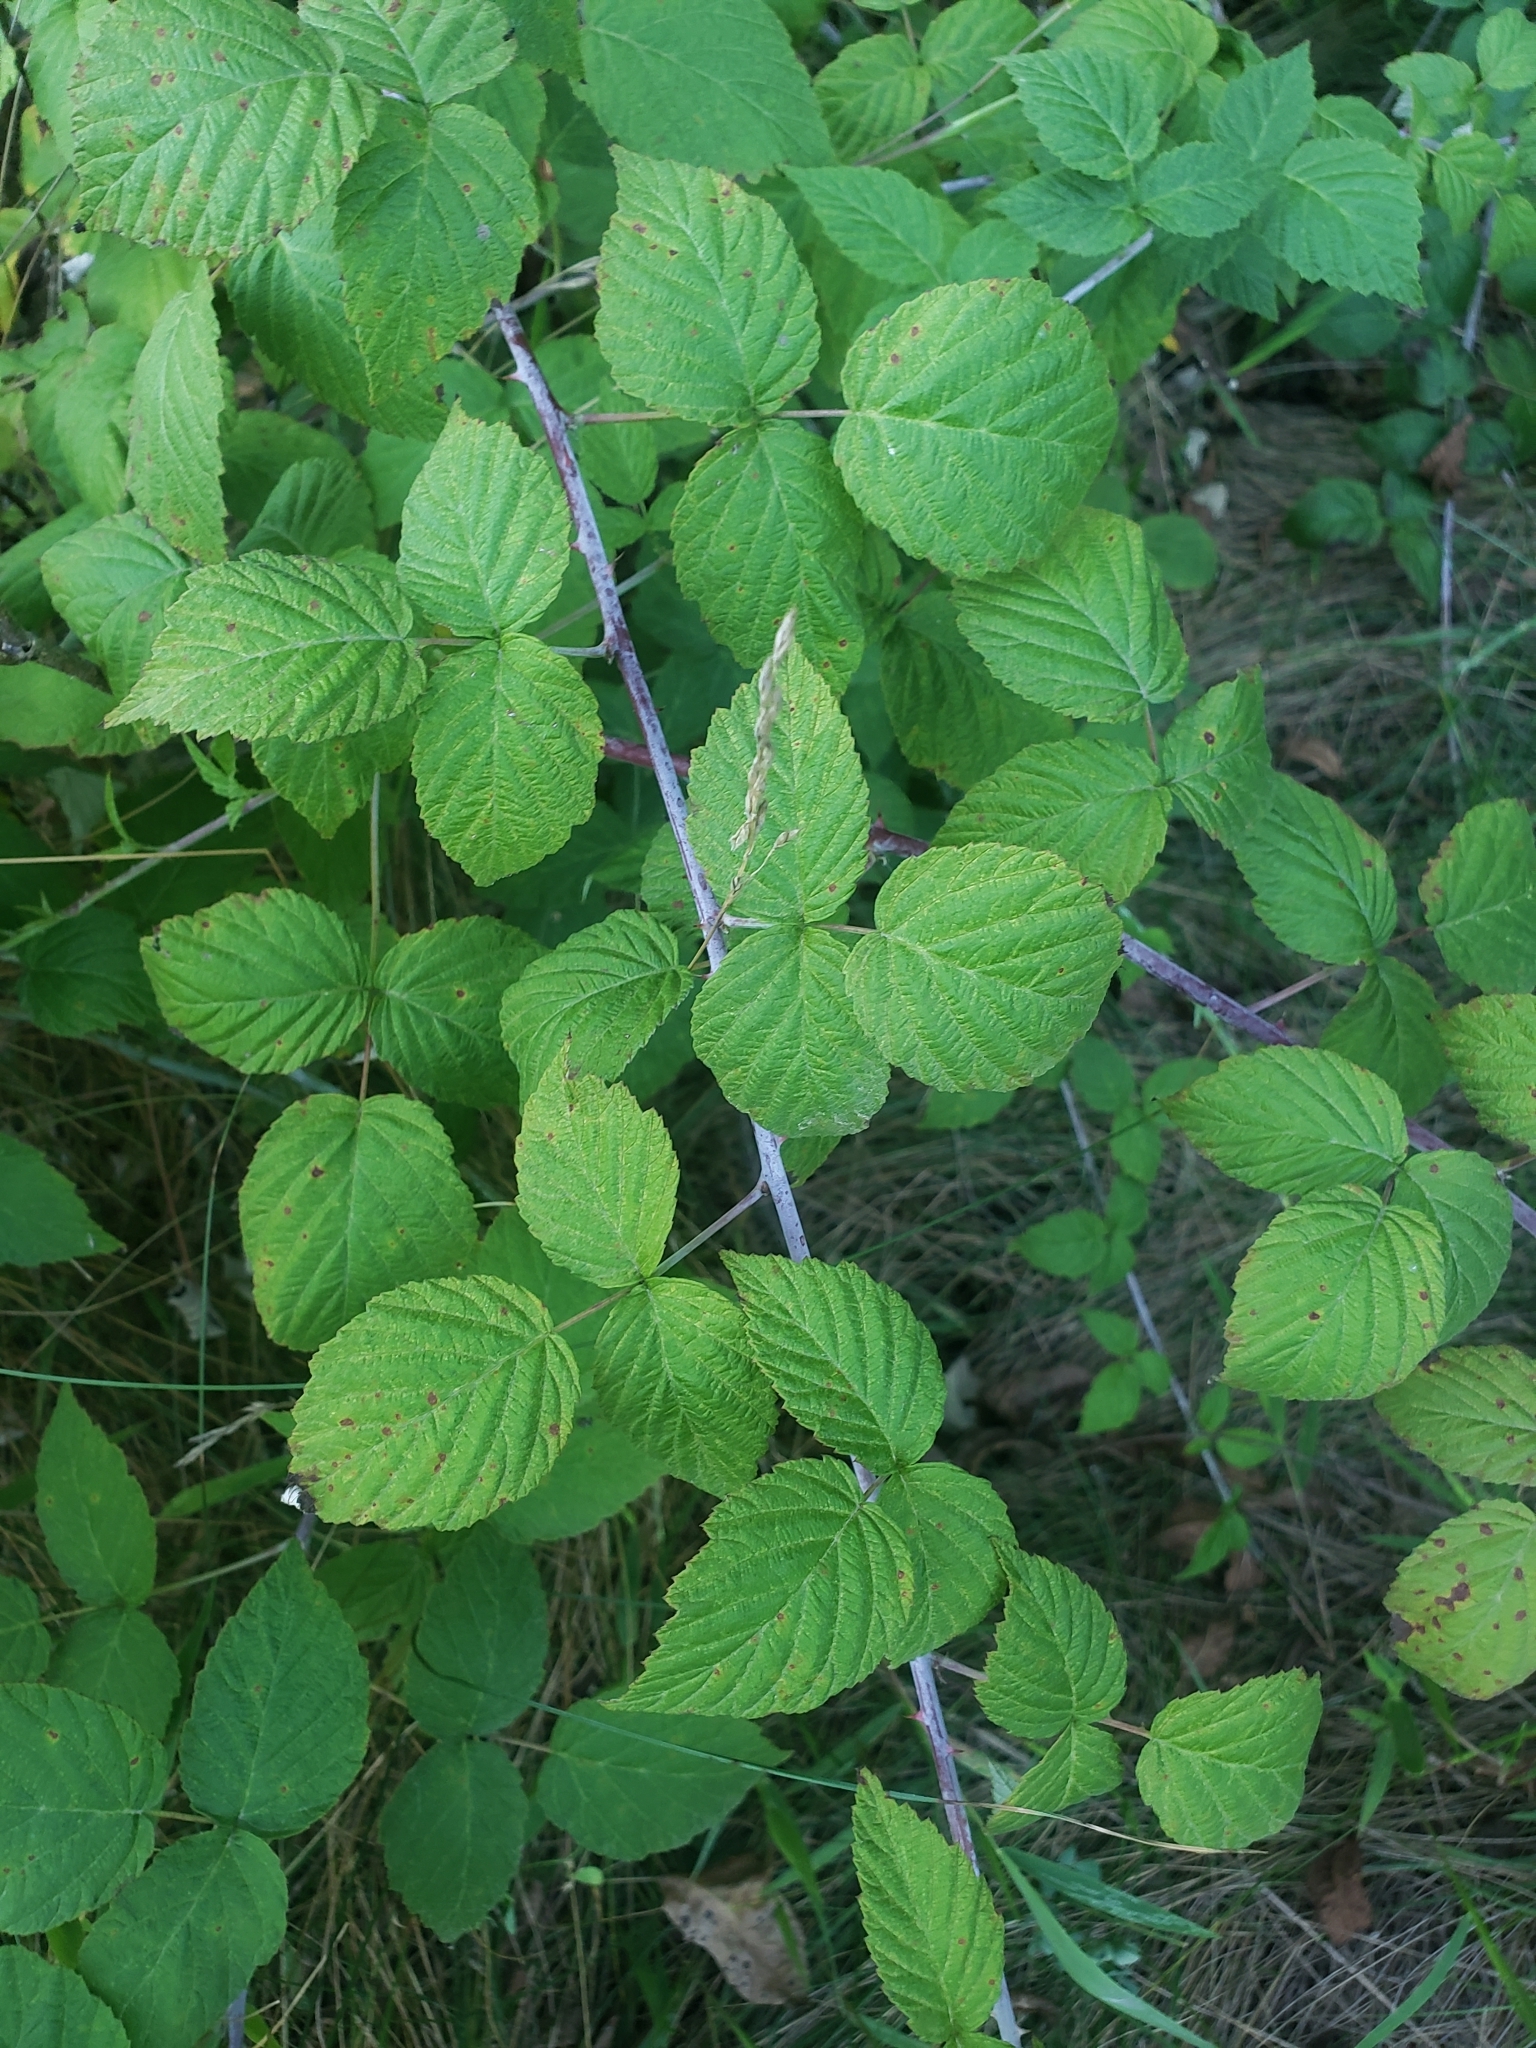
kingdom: Plantae
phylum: Tracheophyta
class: Magnoliopsida
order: Rosales
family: Rosaceae
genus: Rubus
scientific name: Rubus occidentalis
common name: Black raspberry
